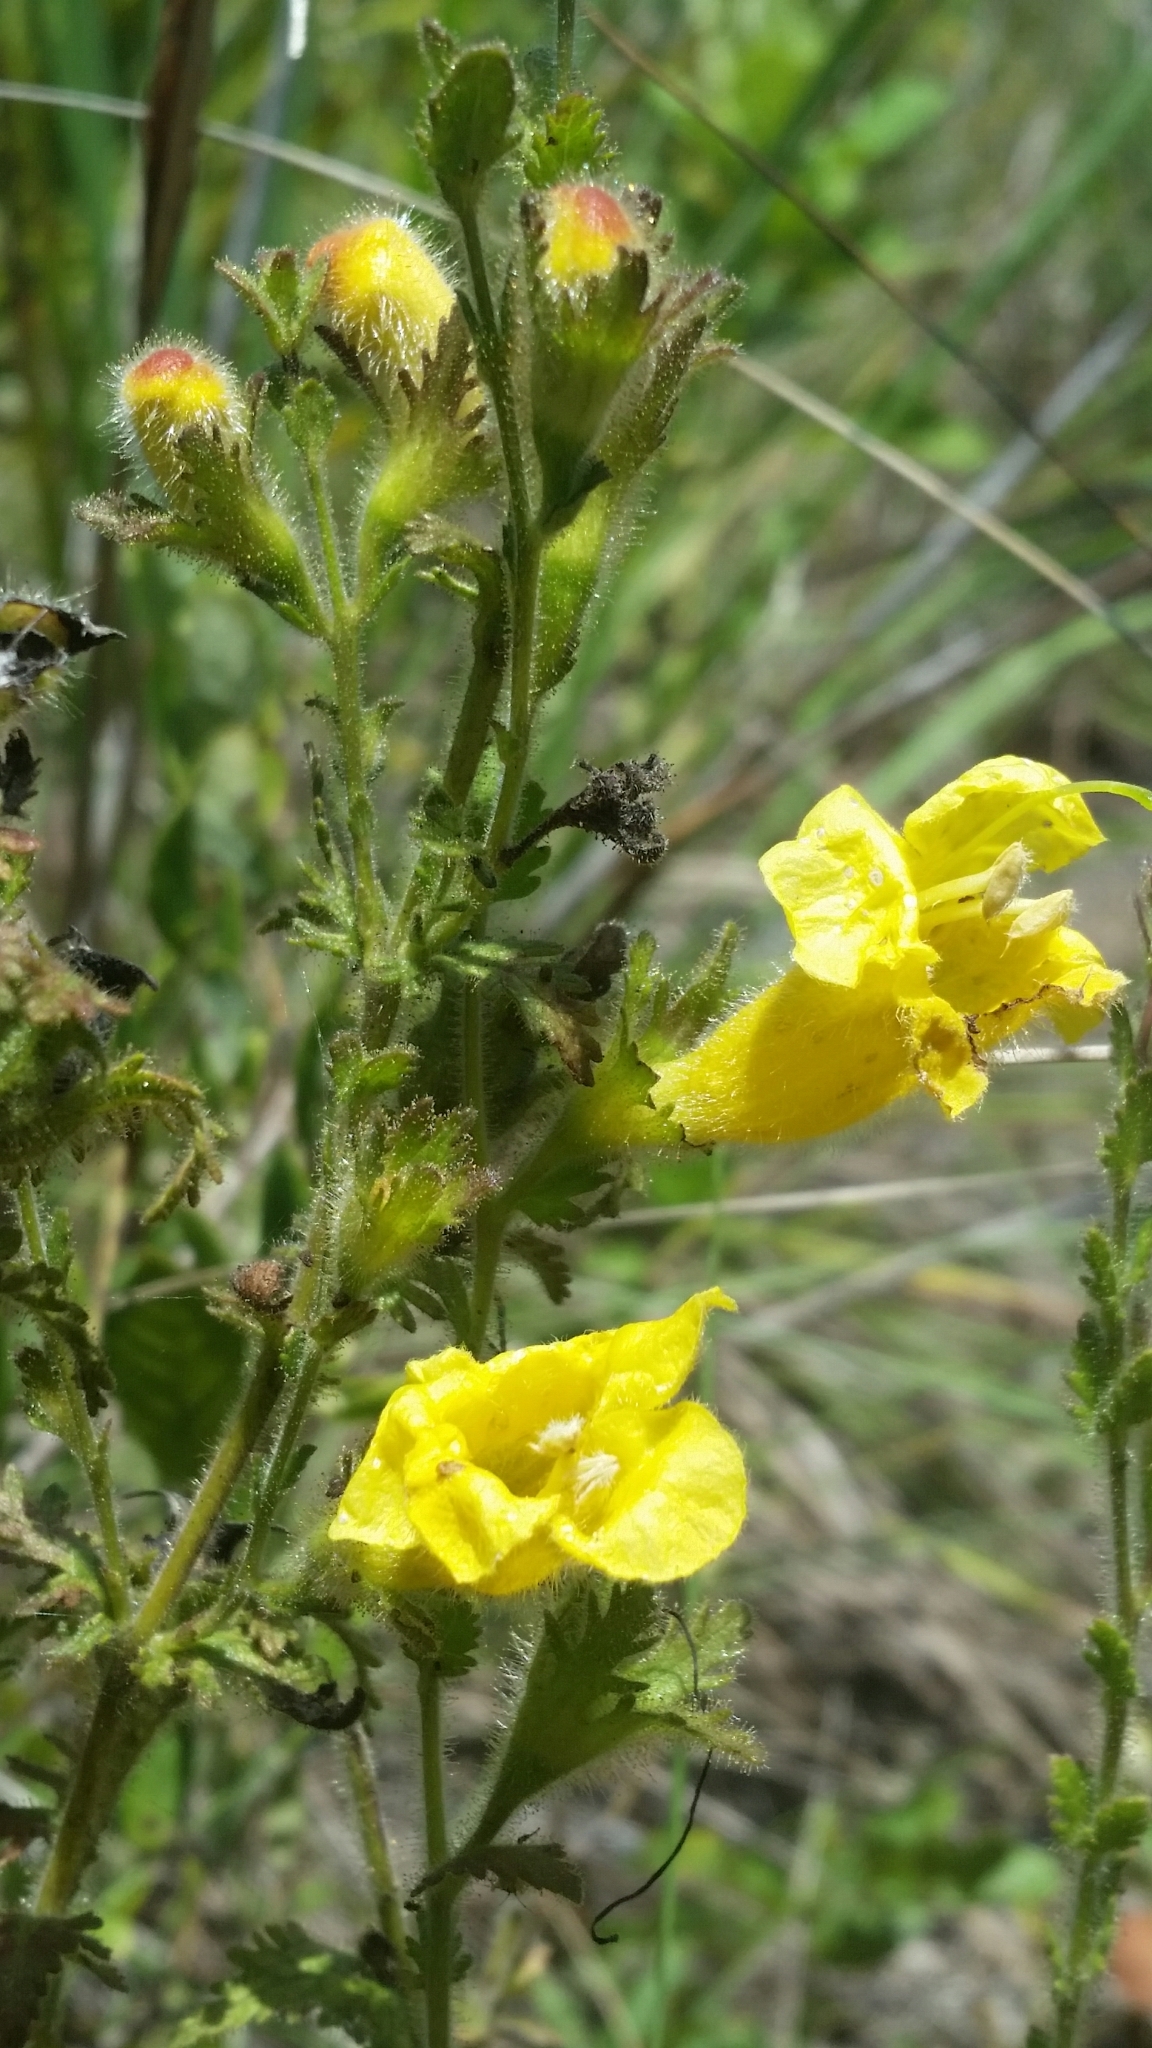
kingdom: Plantae
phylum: Tracheophyta
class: Magnoliopsida
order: Lamiales
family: Orobanchaceae
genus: Aureolaria
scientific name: Aureolaria pectinata
